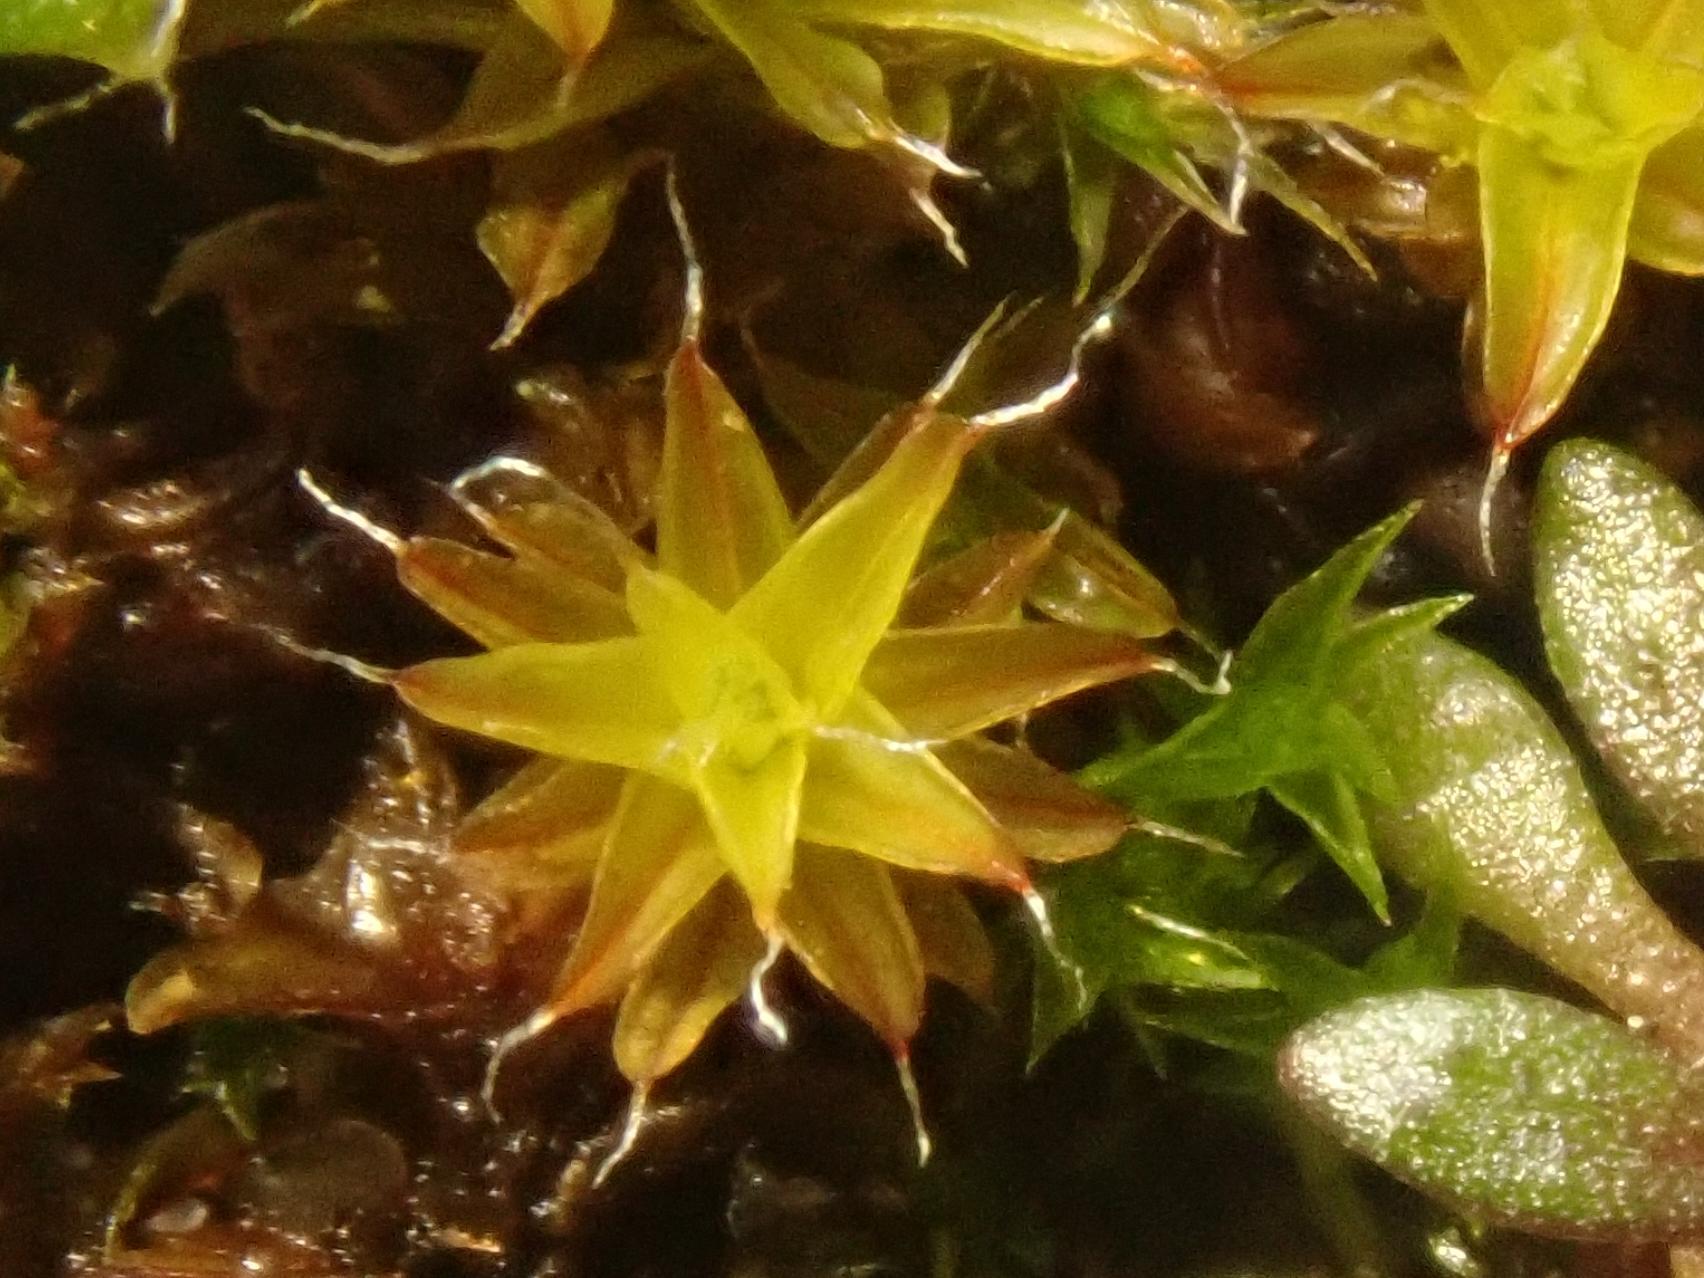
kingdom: Plantae
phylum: Bryophyta
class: Bryopsida
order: Pottiales
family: Pottiaceae
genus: Syntrichia
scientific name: Syntrichia ruralis
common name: Sidewalk screw moss
